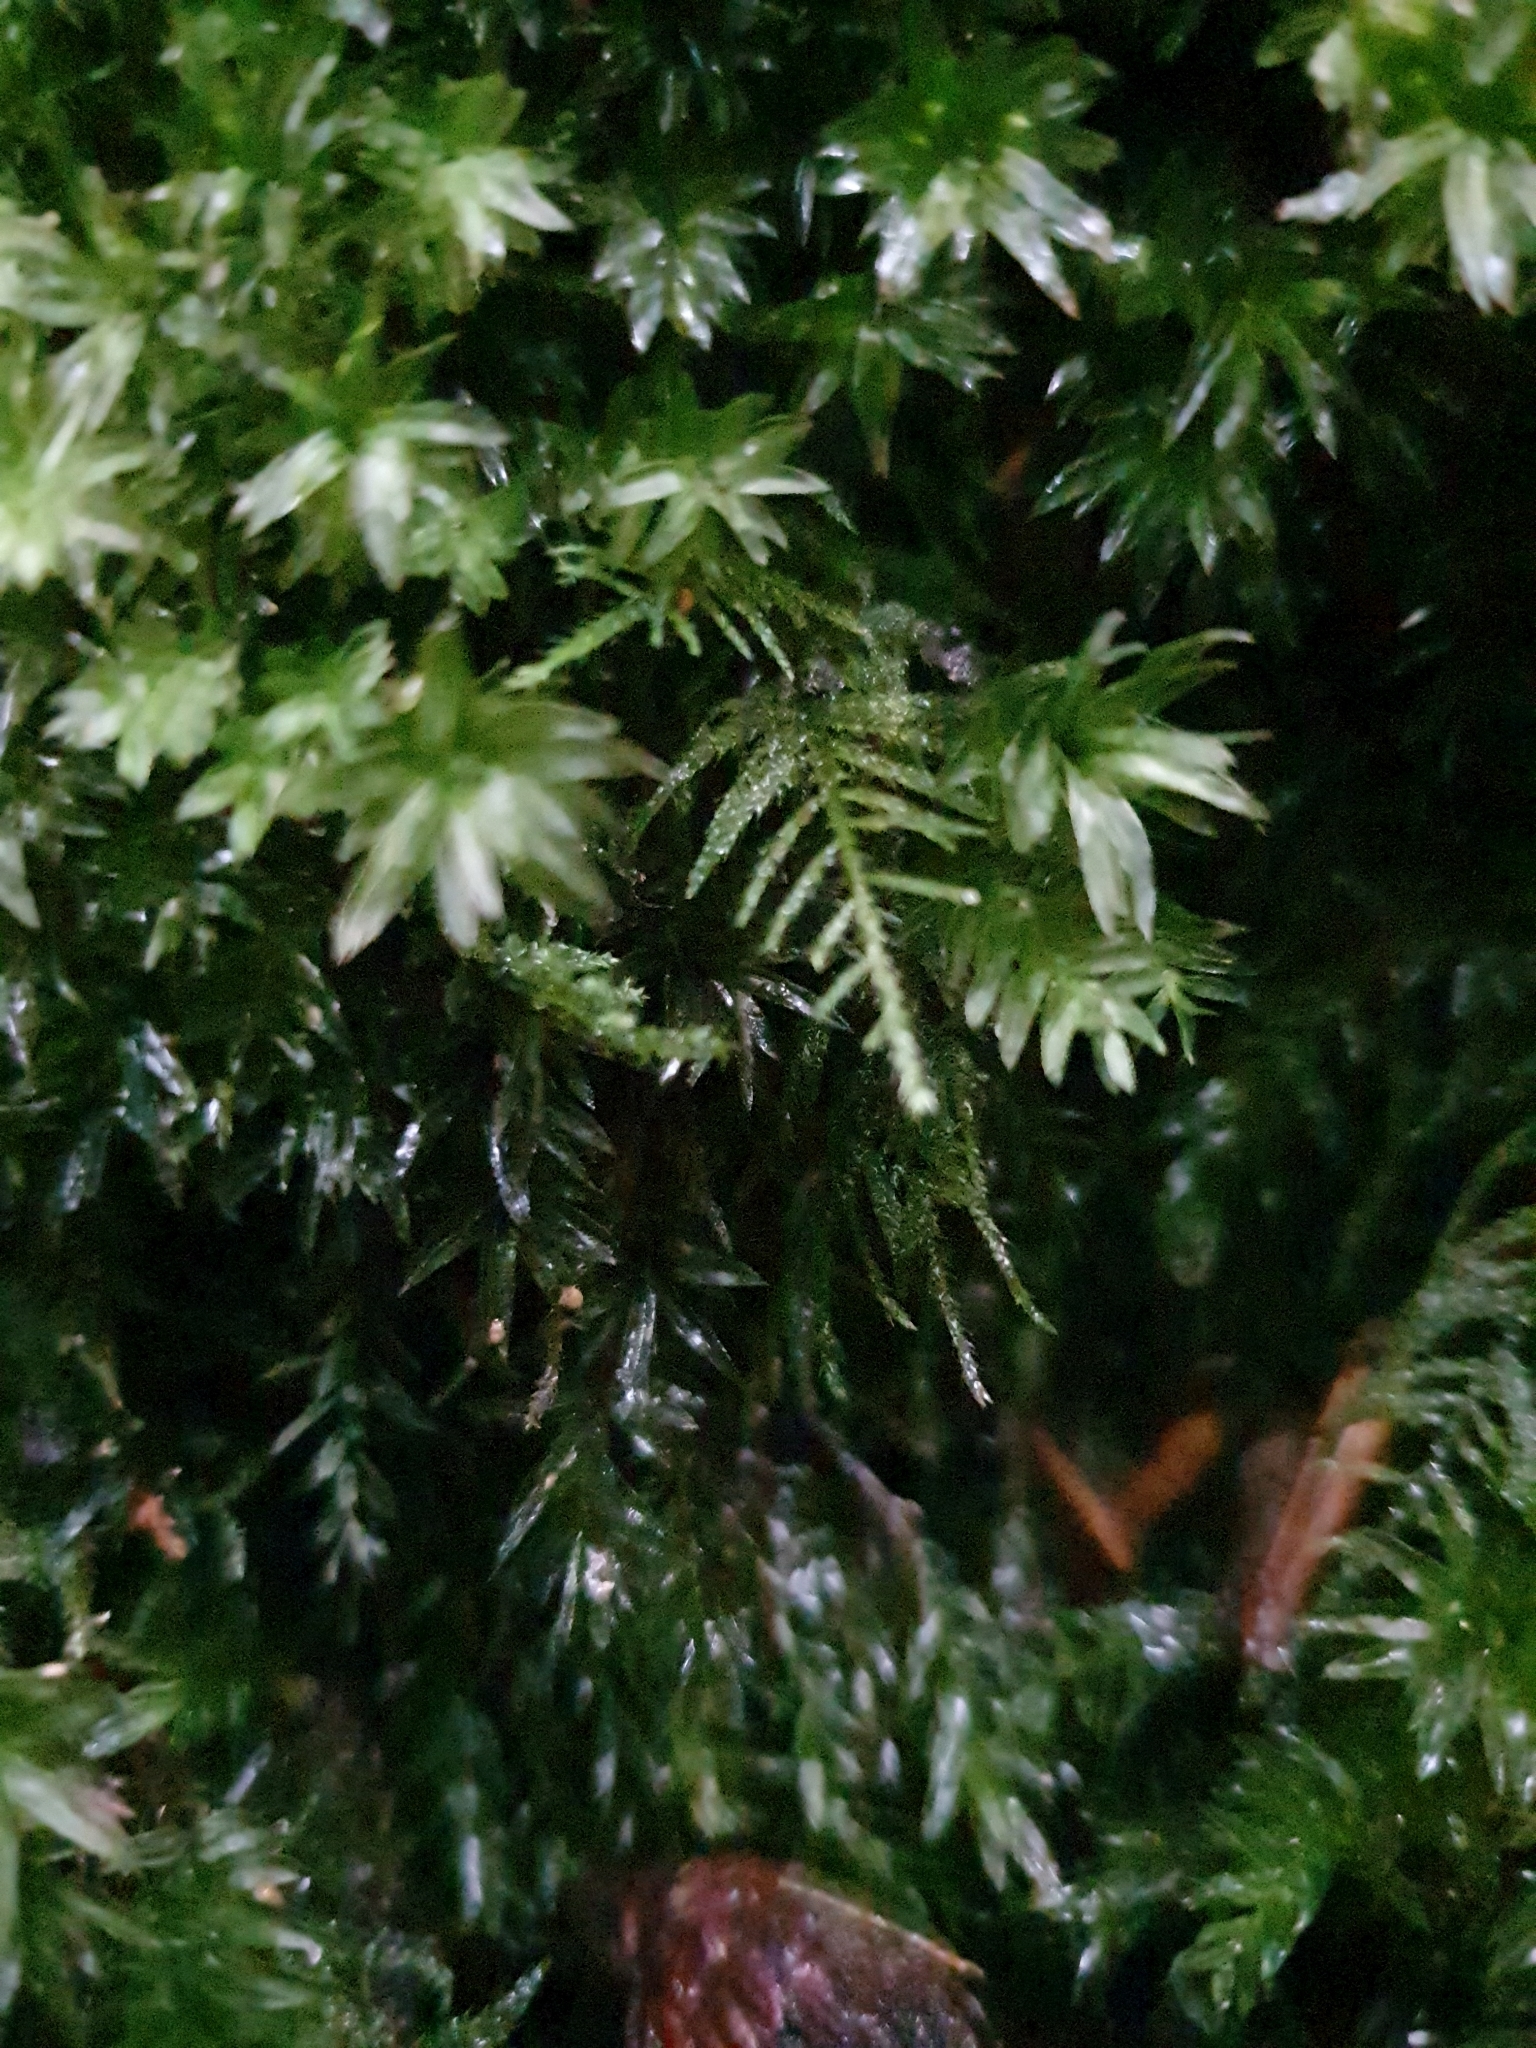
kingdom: Plantae
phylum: Bryophyta
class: Bryopsida
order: Bryales
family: Mniaceae
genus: Mnium
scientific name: Mnium hornum
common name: Swan's-neck leafy moss
